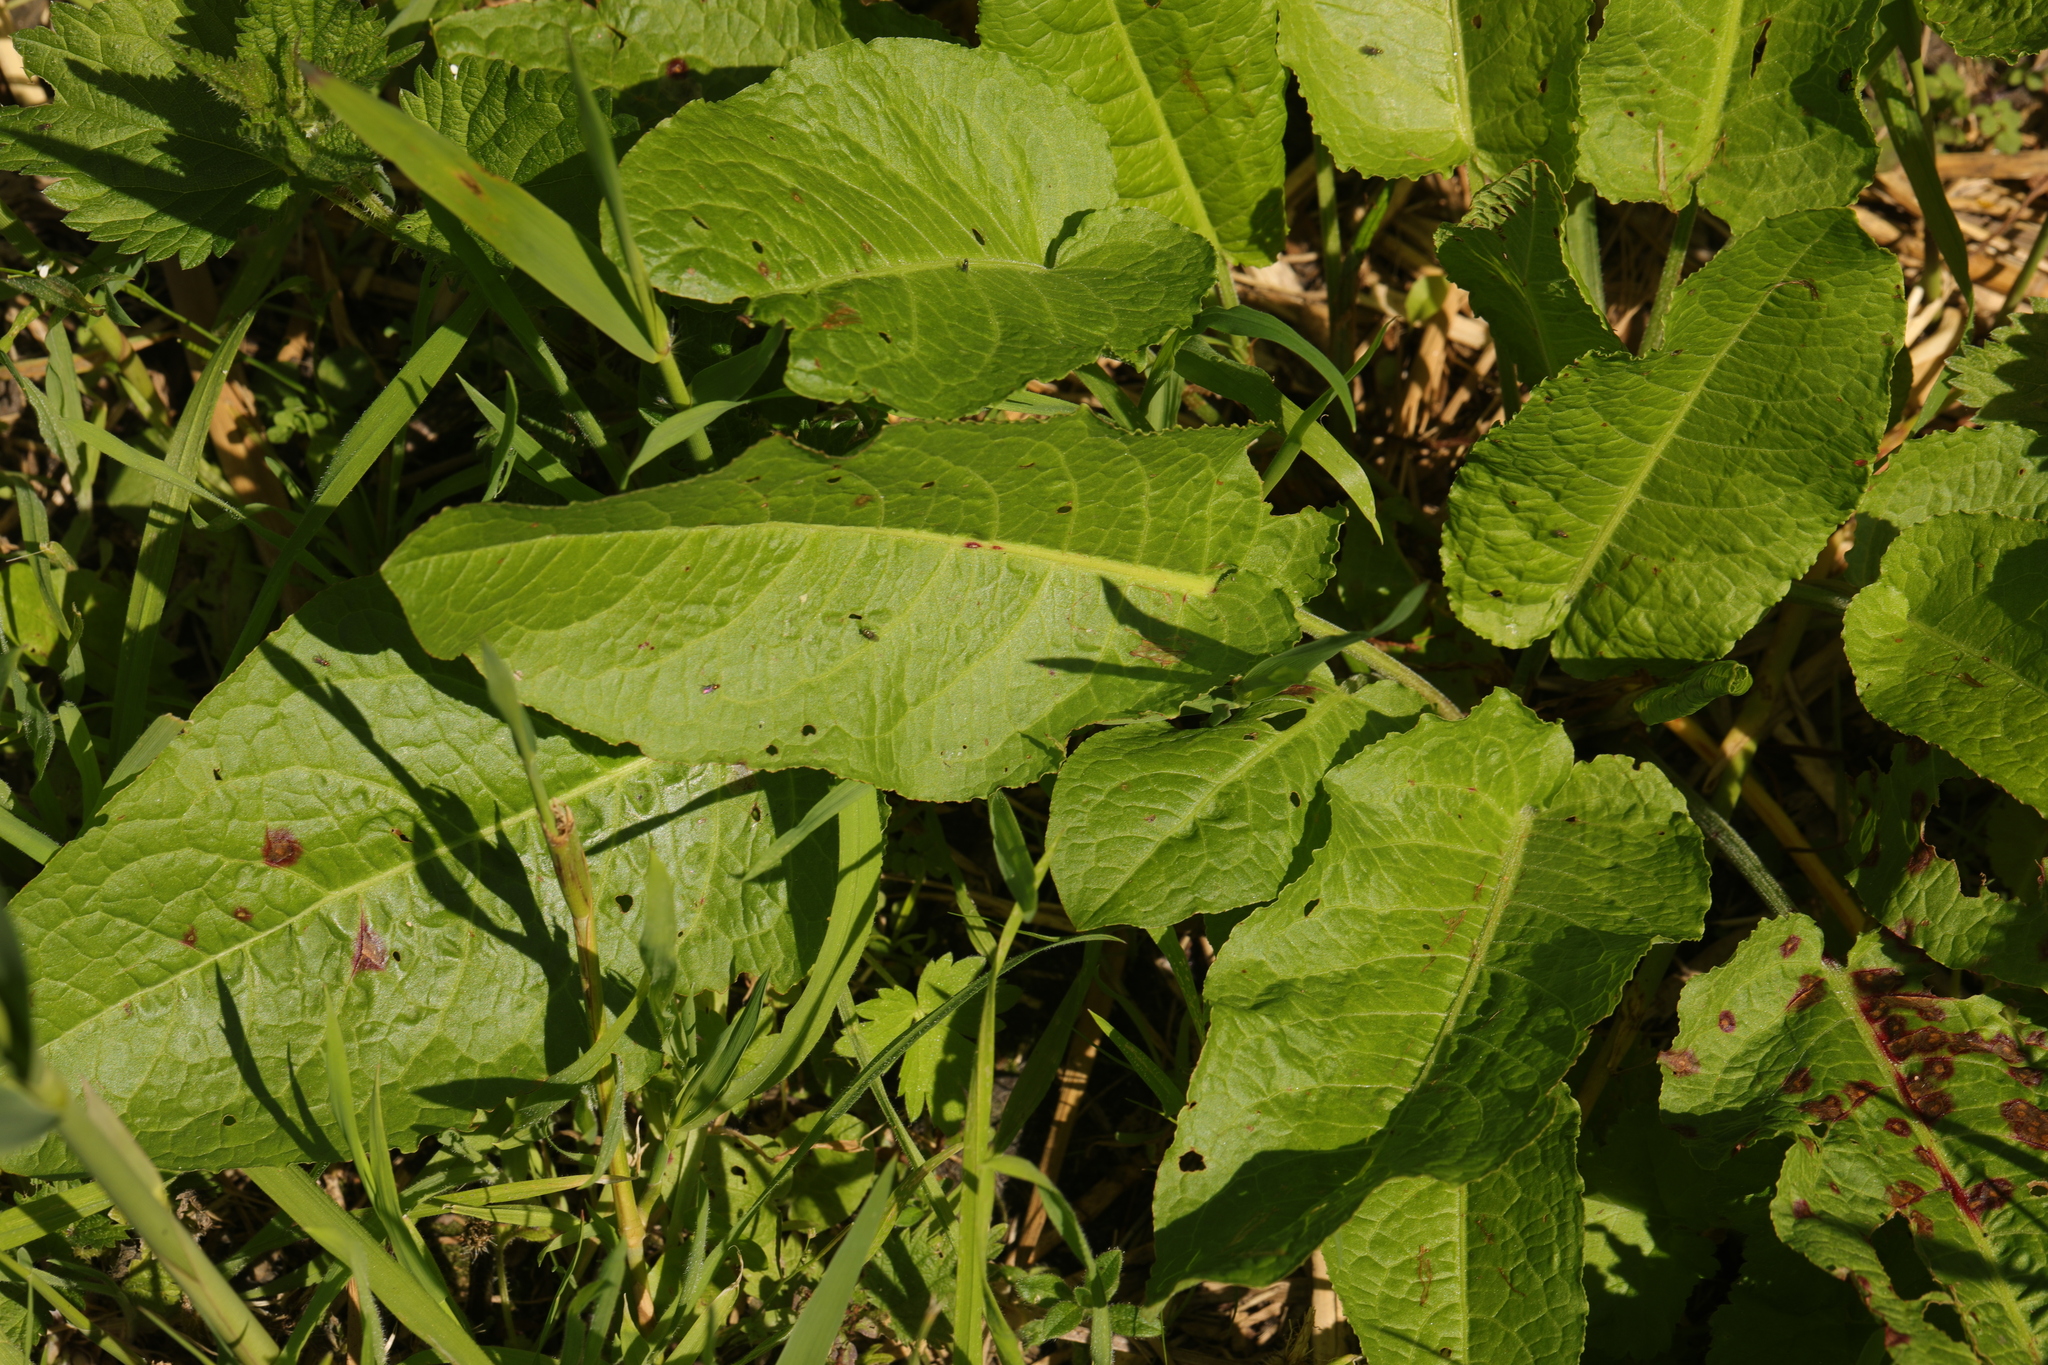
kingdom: Plantae
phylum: Tracheophyta
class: Magnoliopsida
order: Caryophyllales
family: Polygonaceae
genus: Rumex
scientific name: Rumex obtusifolius
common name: Bitter dock
